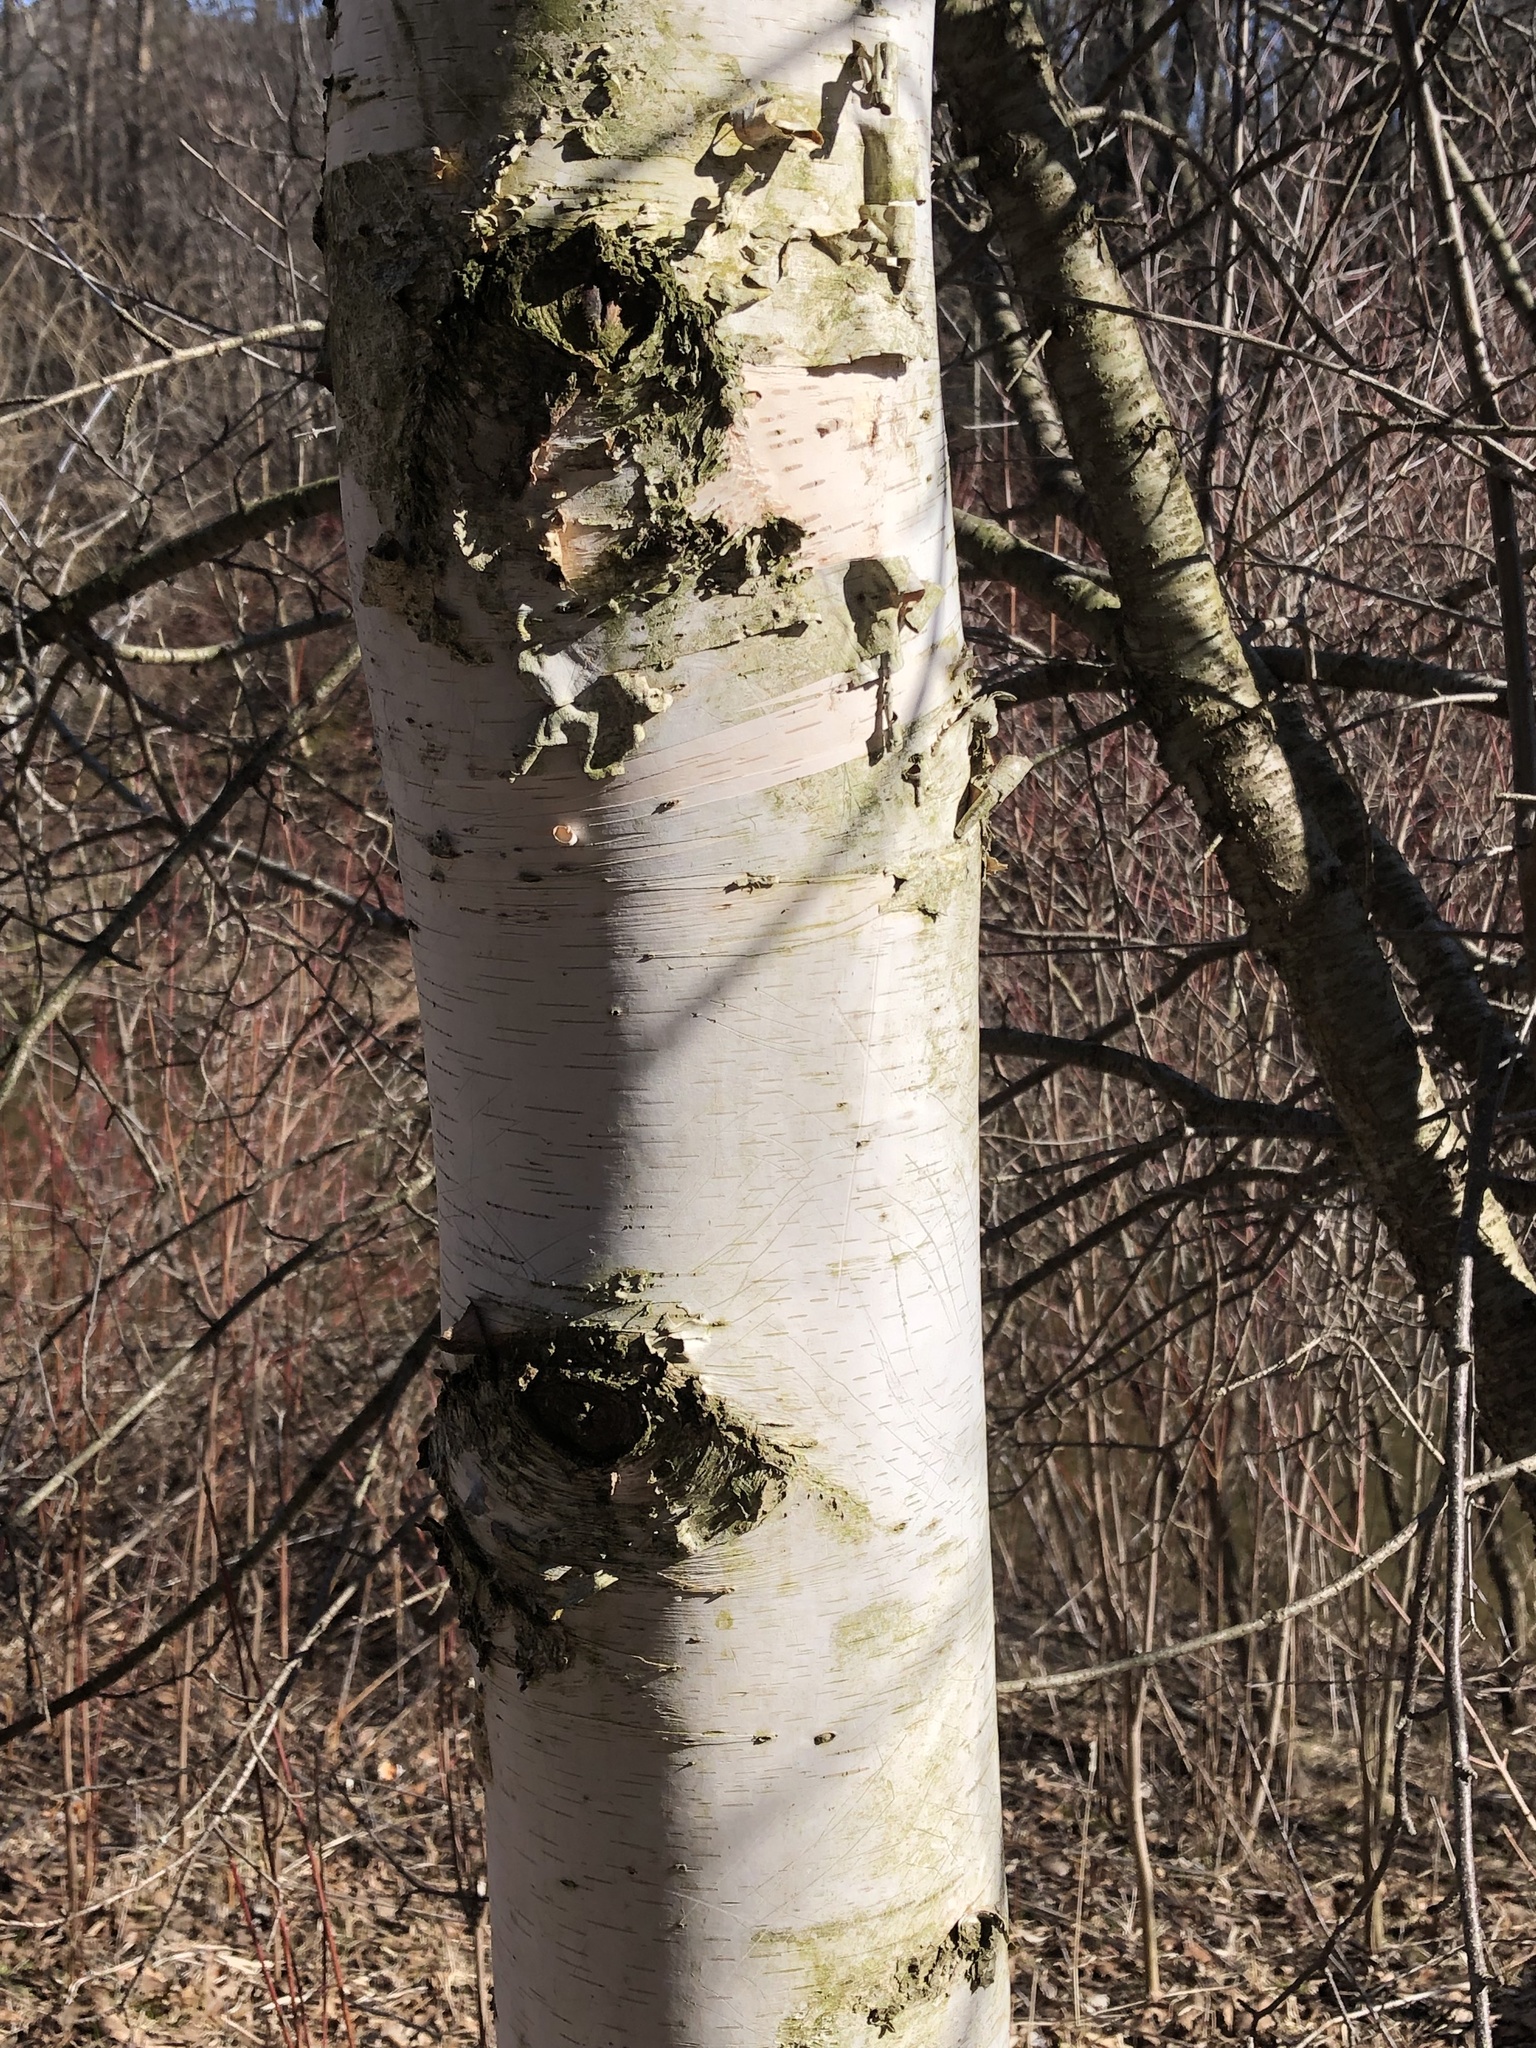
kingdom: Plantae
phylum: Tracheophyta
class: Magnoliopsida
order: Fagales
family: Betulaceae
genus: Betula
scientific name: Betula papyrifera
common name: Paper birch
